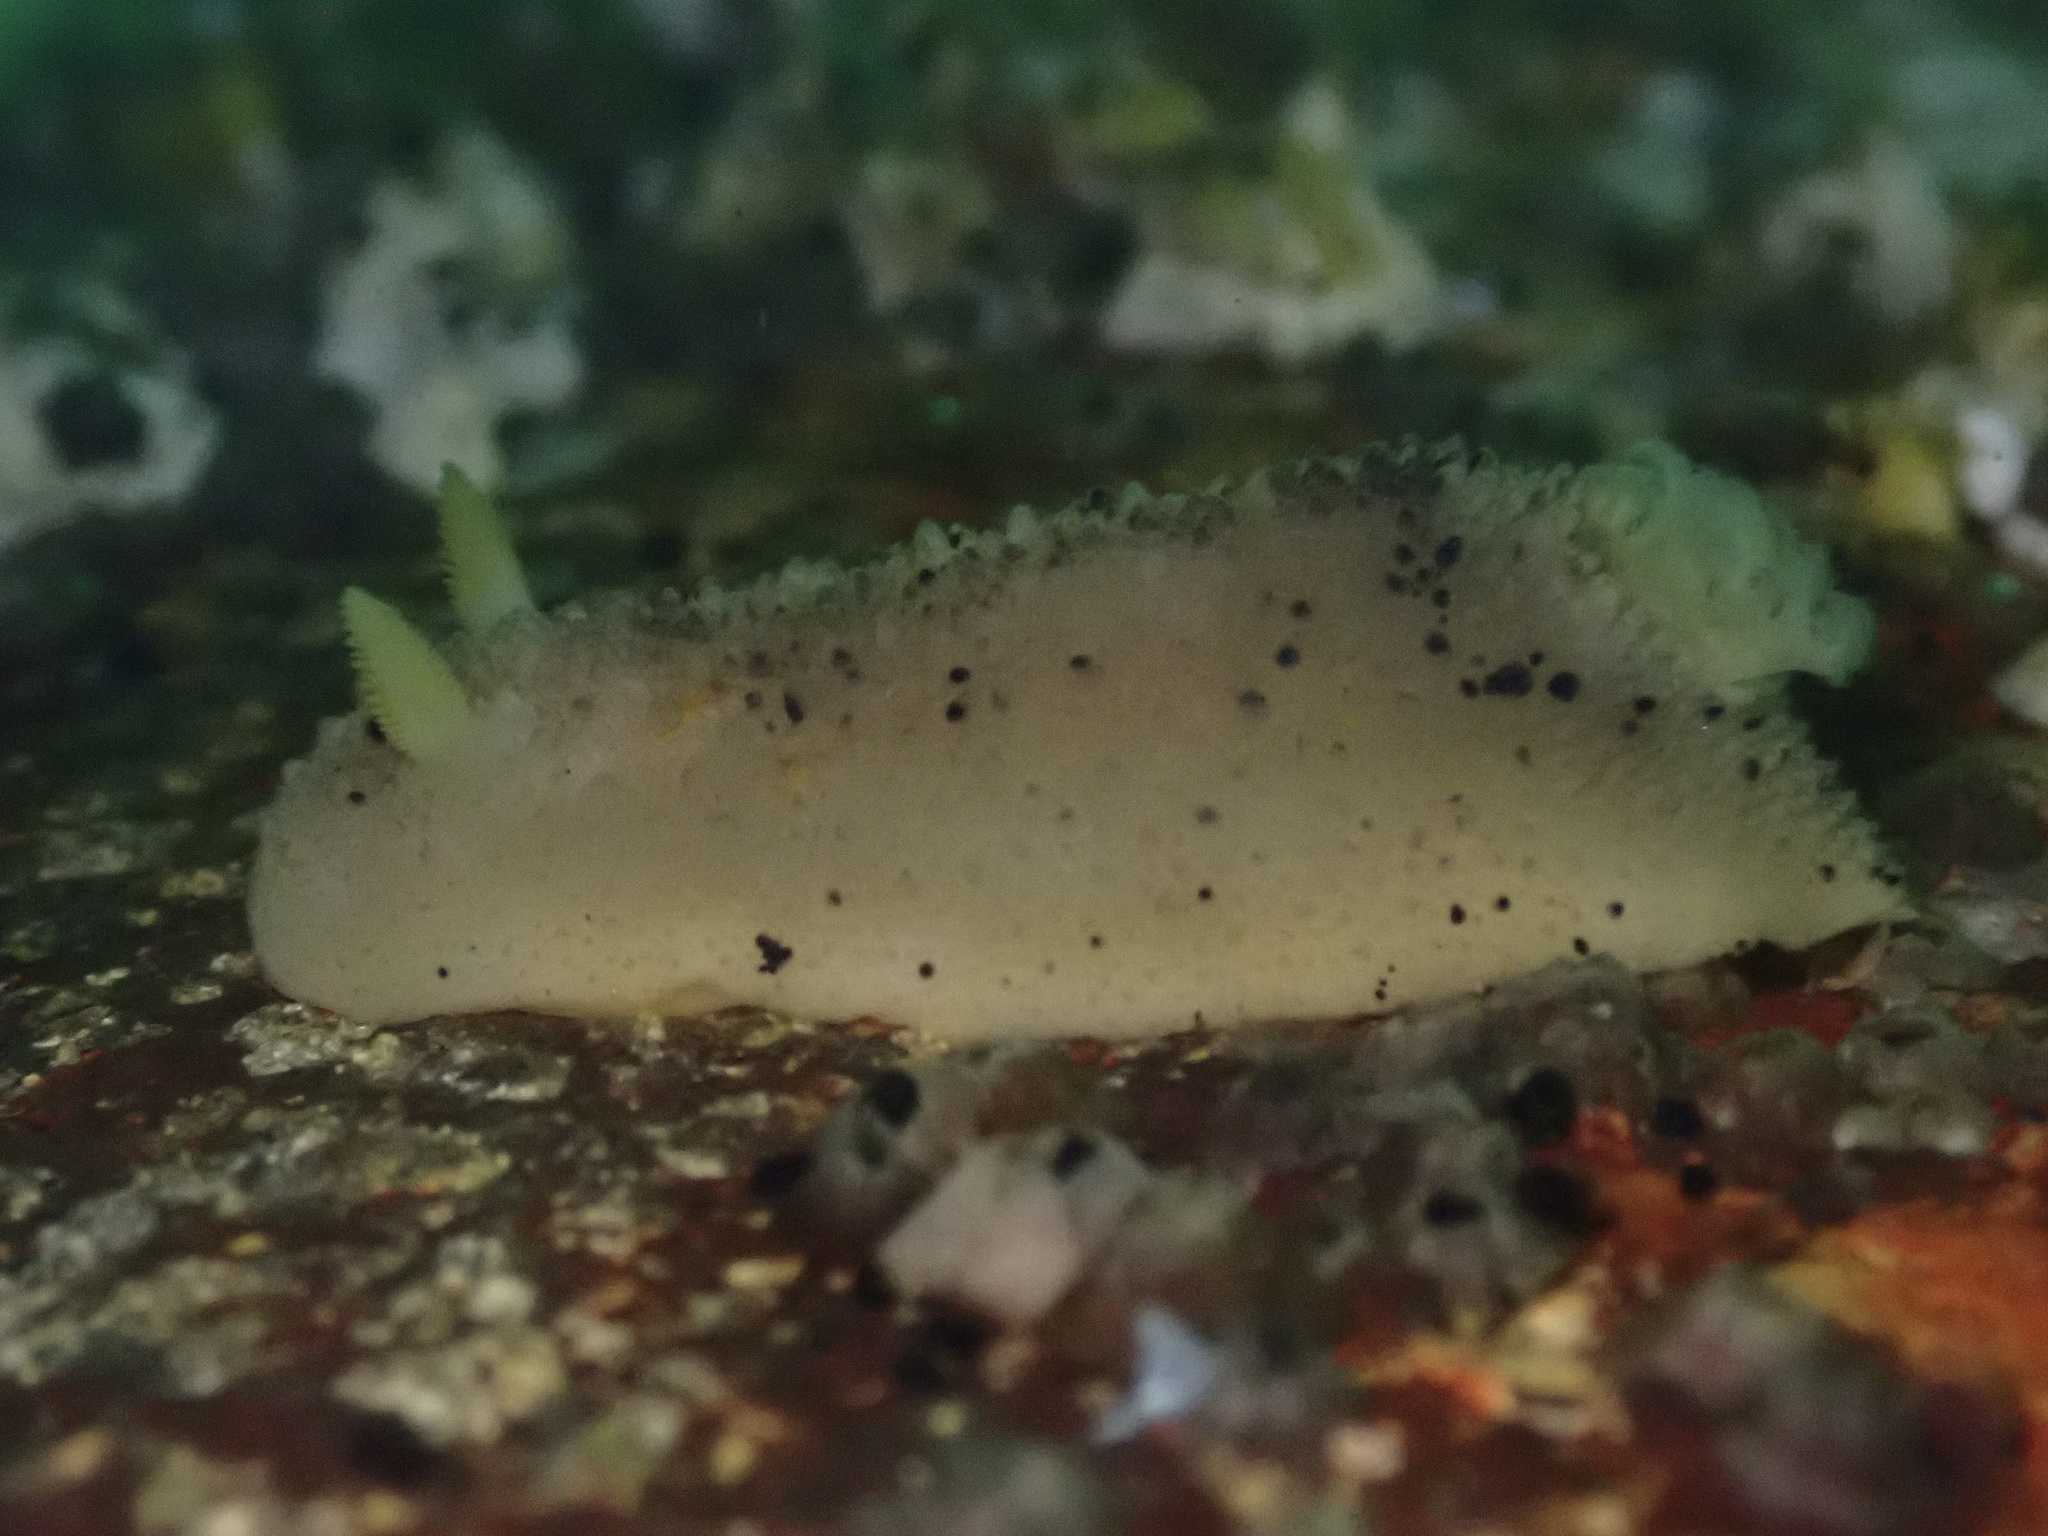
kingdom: Animalia
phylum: Mollusca
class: Gastropoda
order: Nudibranchia
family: Dorididae
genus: Doris
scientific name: Doris montereyensis
